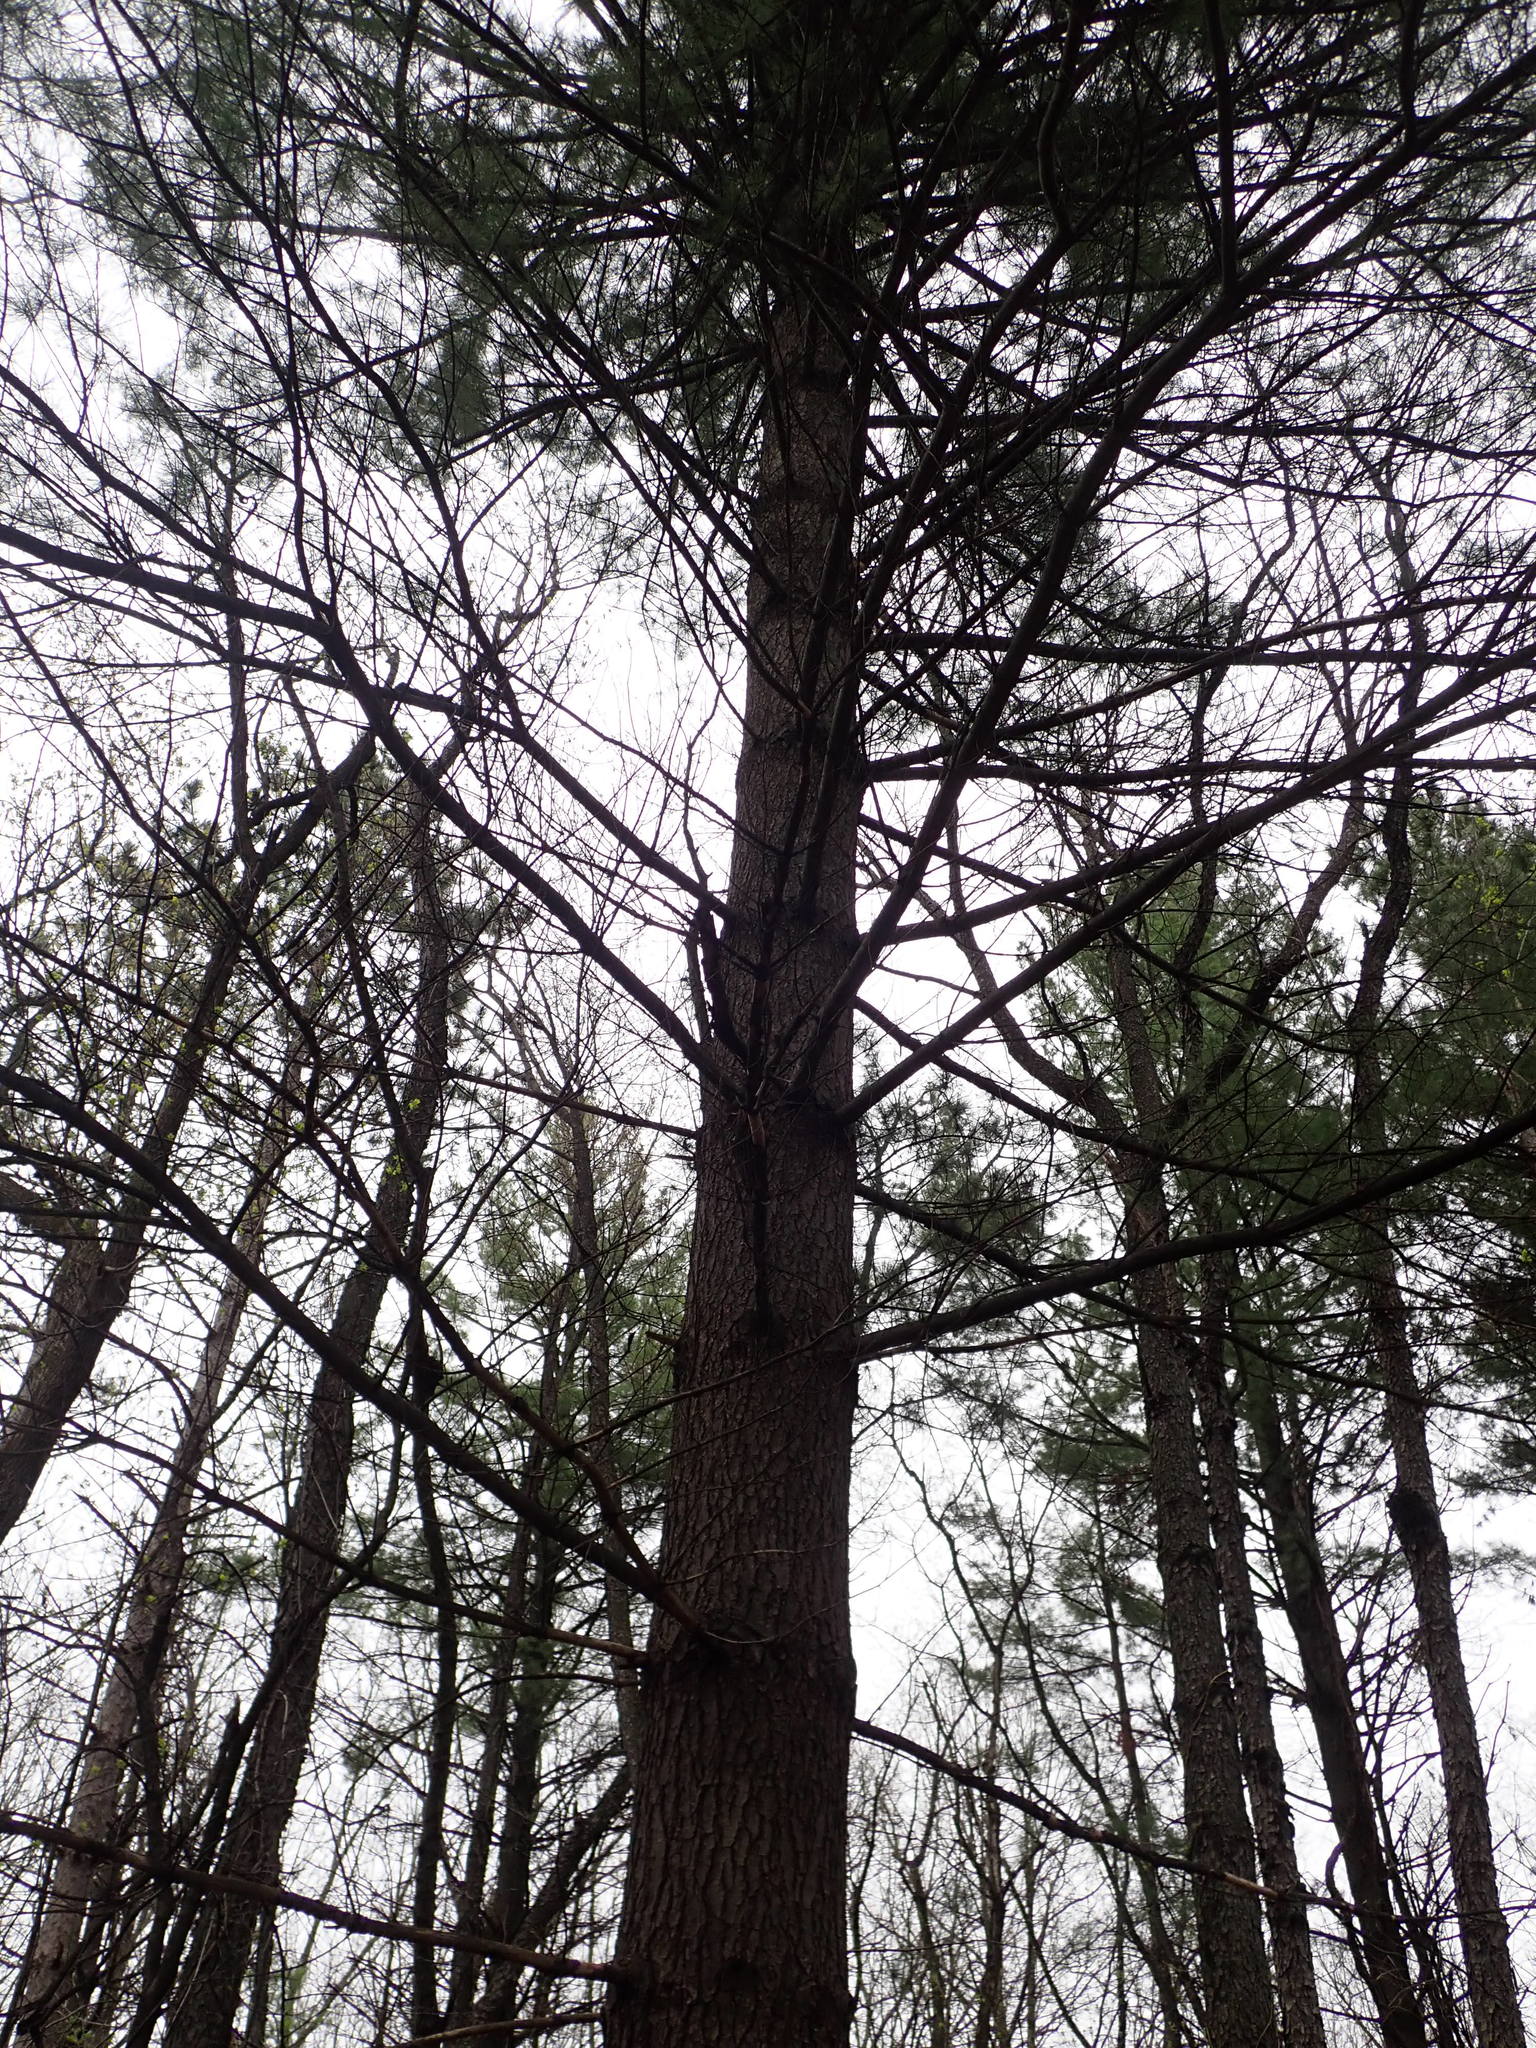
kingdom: Plantae
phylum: Tracheophyta
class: Pinopsida
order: Pinales
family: Pinaceae
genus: Pinus
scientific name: Pinus strobus
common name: Weymouth pine
